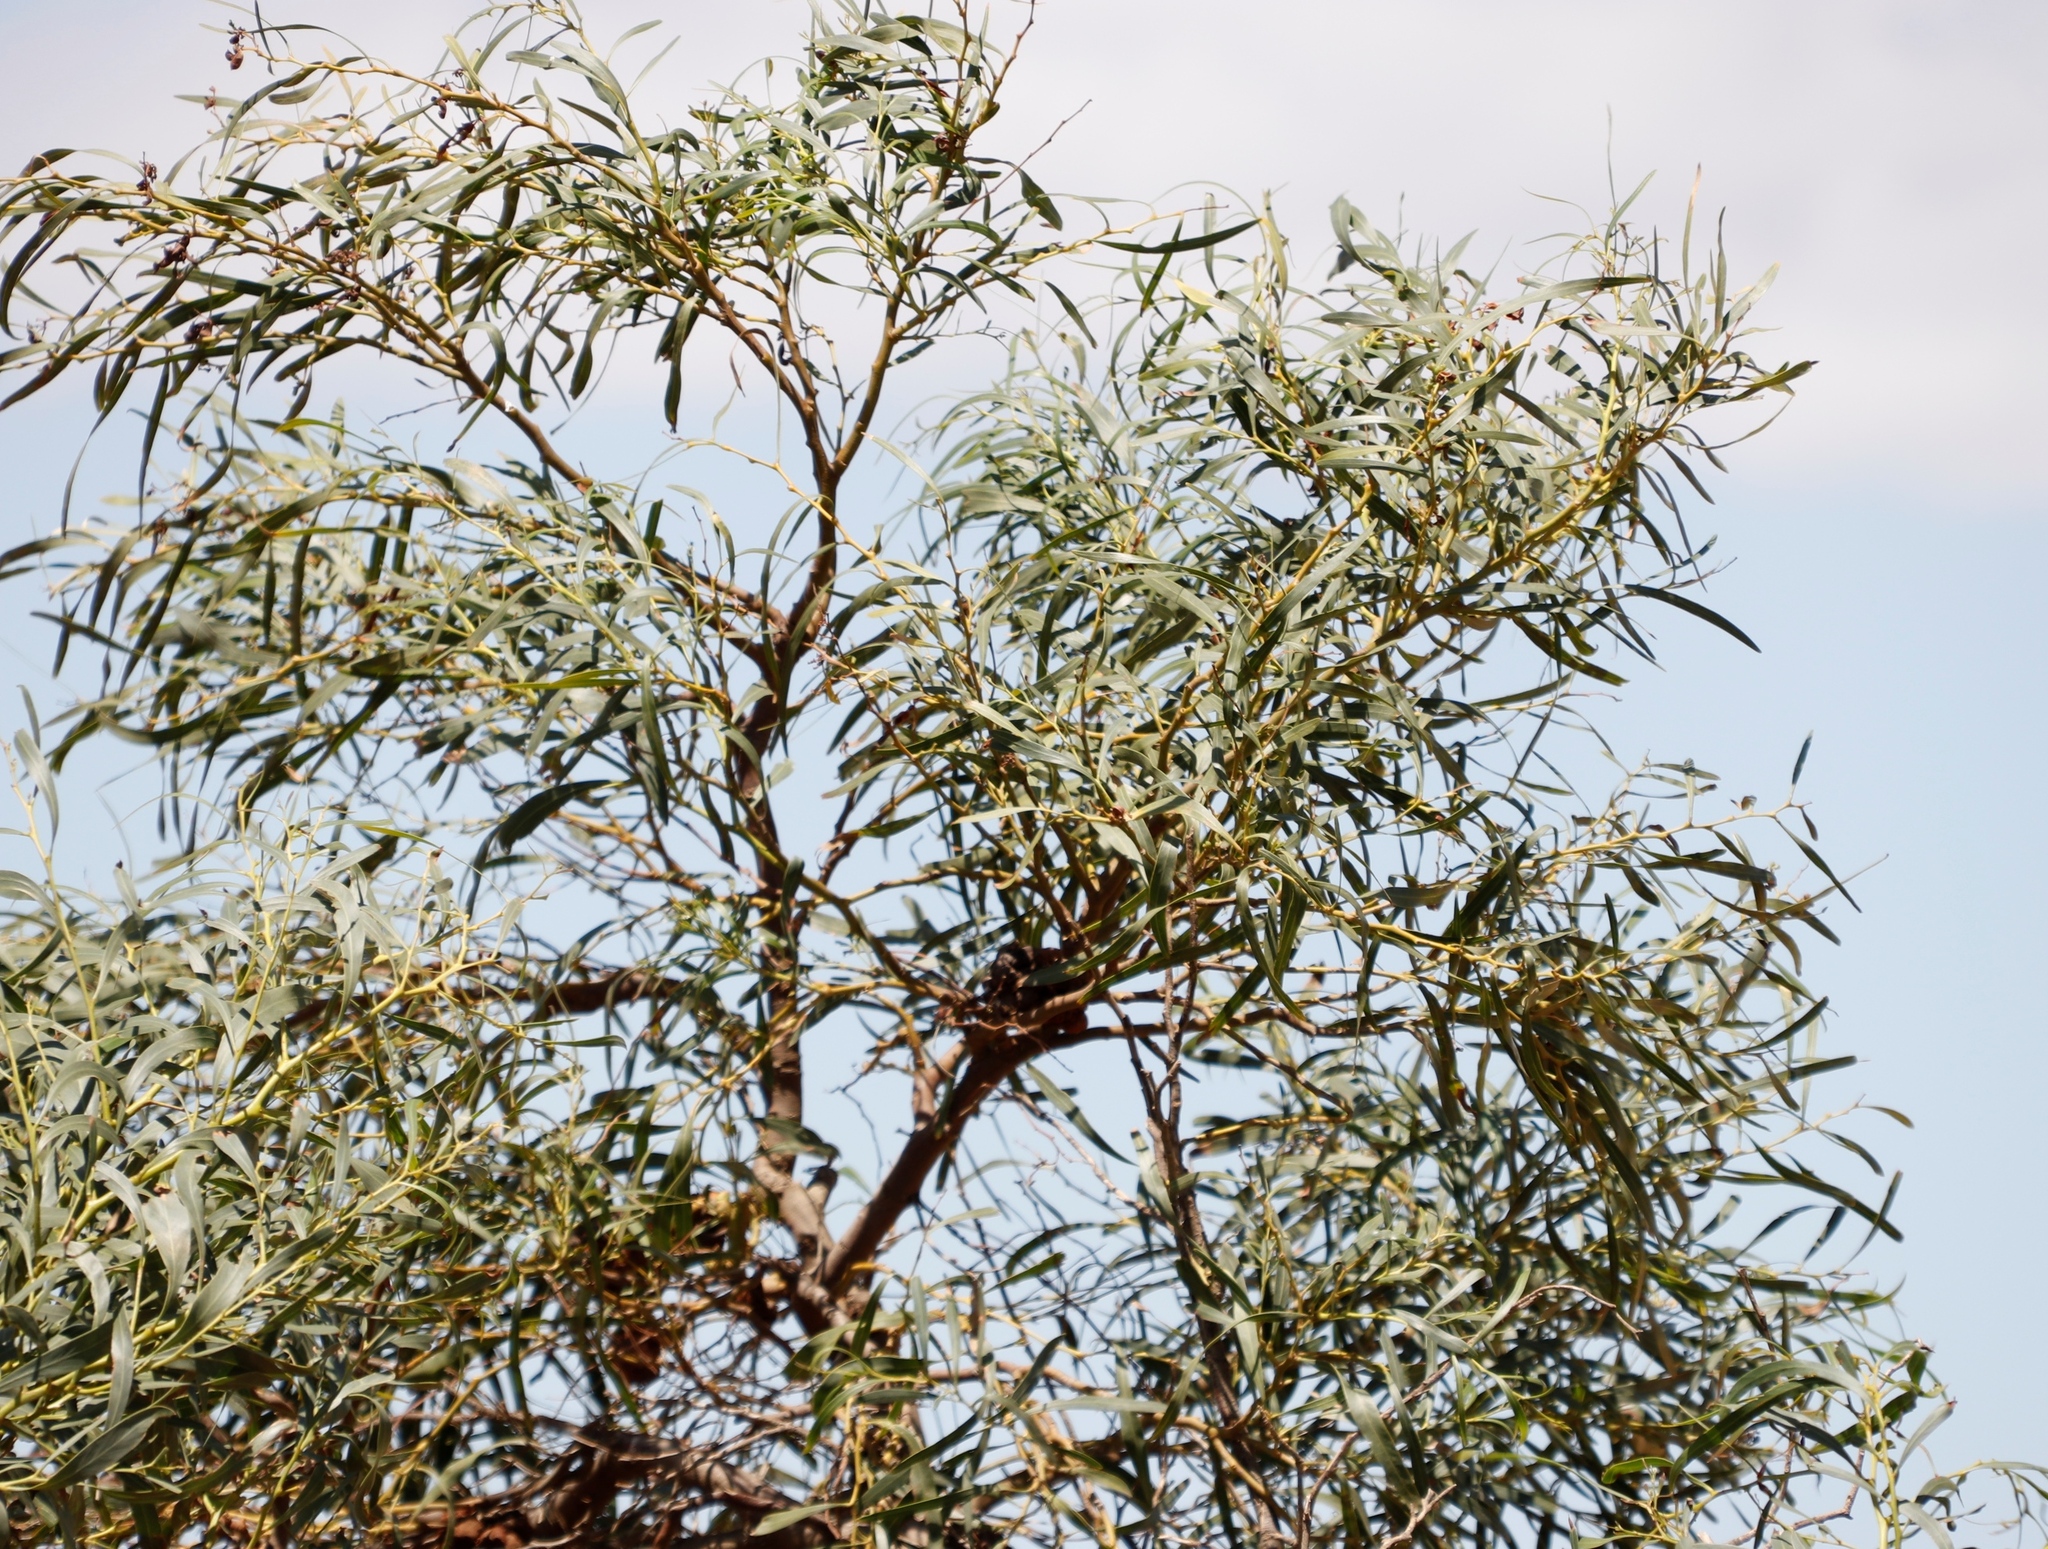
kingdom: Plantae
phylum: Tracheophyta
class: Magnoliopsida
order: Fabales
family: Fabaceae
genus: Acacia
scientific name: Acacia saligna
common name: Orange wattle
